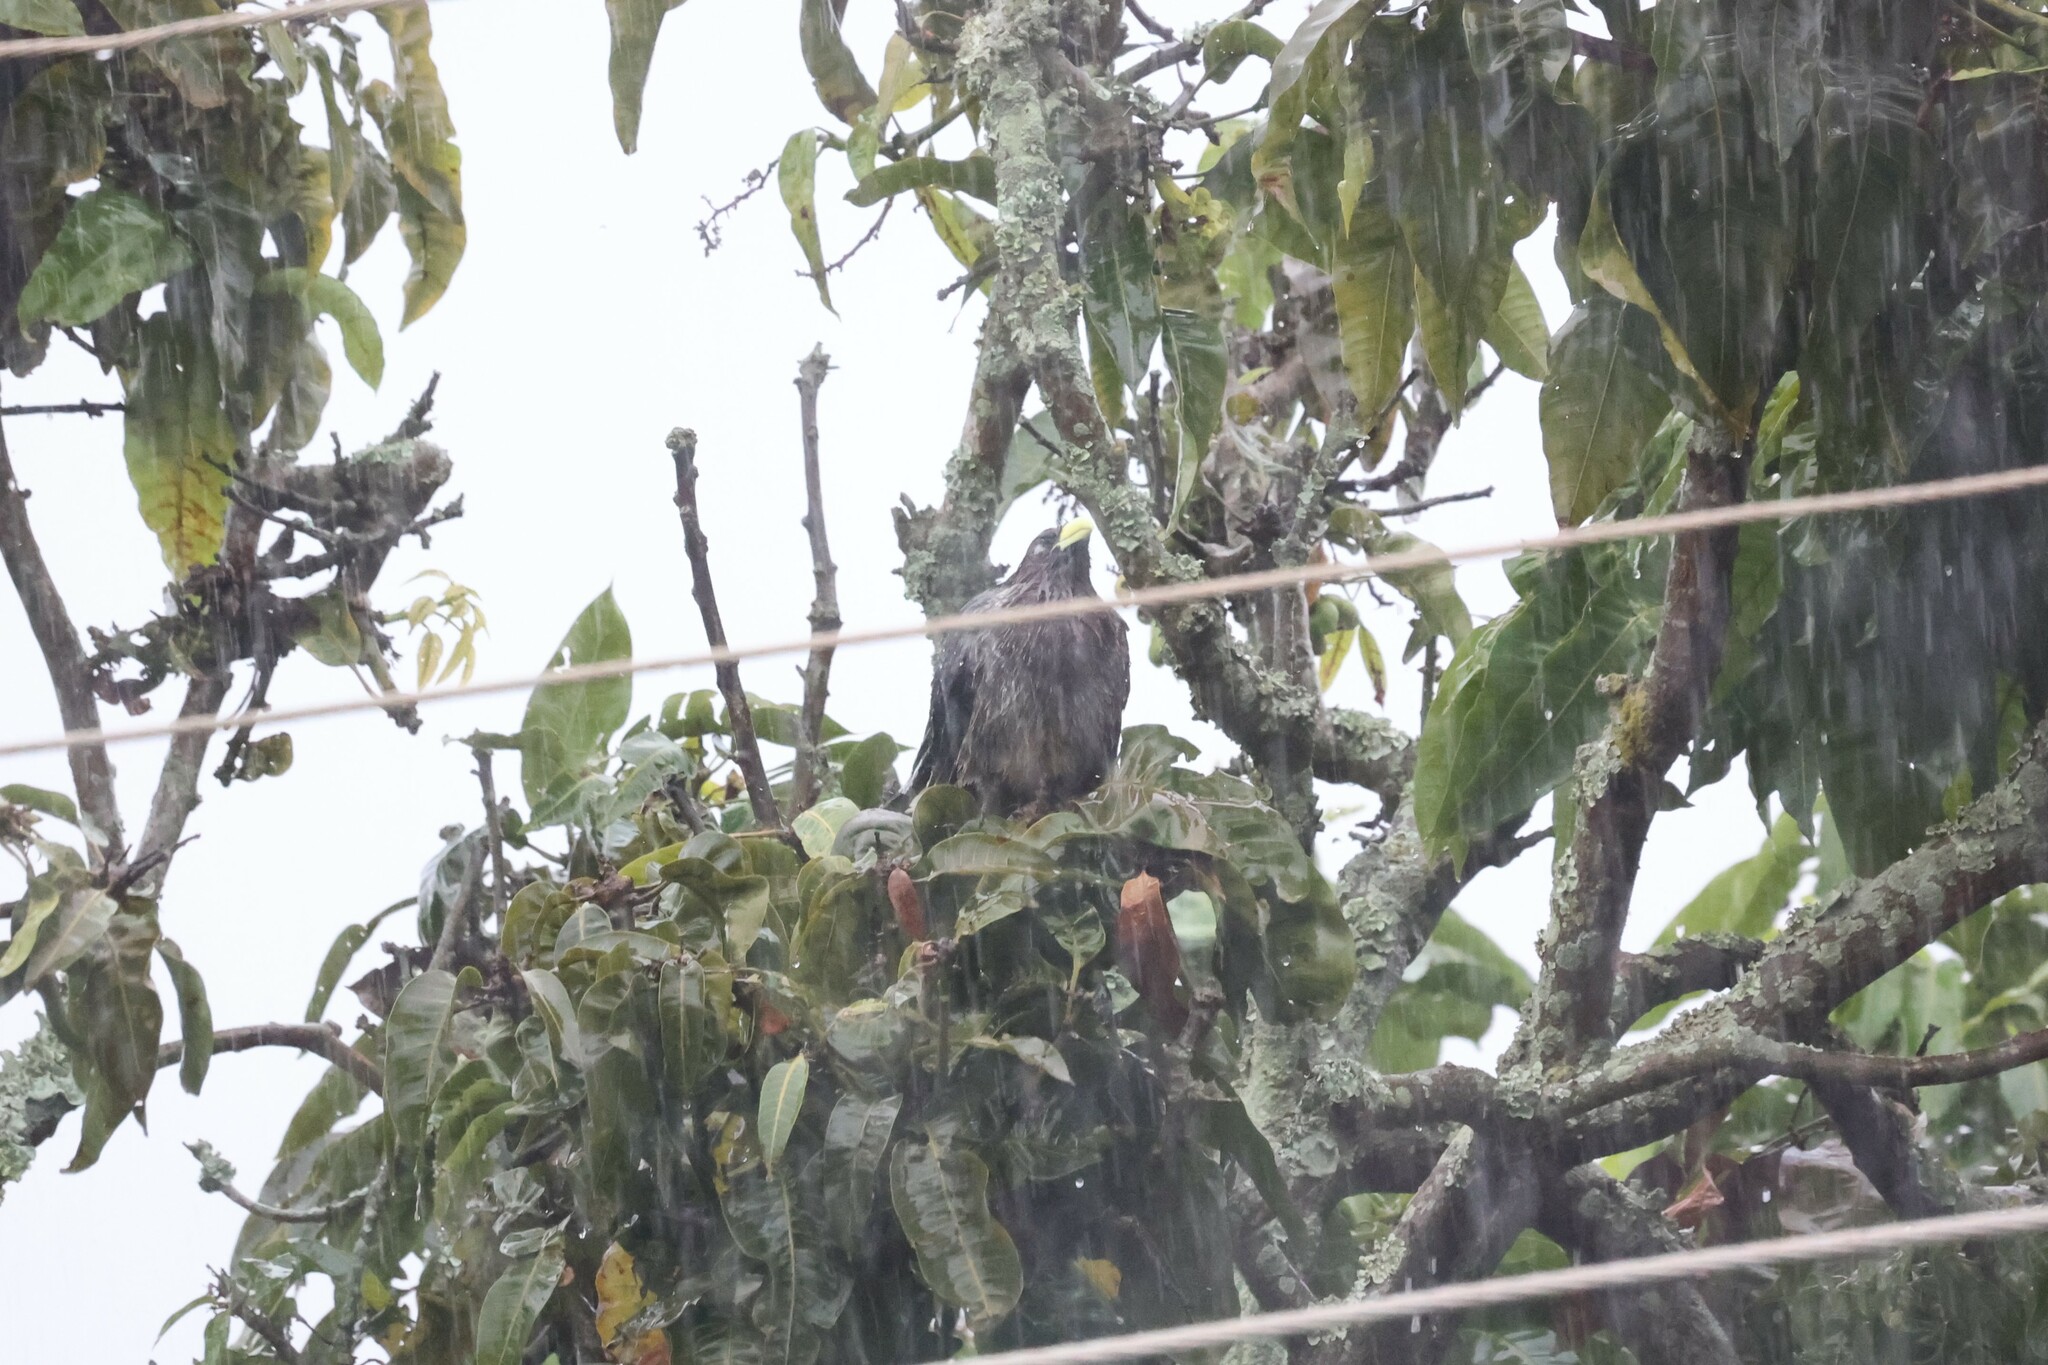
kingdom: Animalia
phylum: Chordata
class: Aves
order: Musophagiformes
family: Musophagidae
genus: Crinifer
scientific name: Crinifer zonurus
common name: Eastern plantain-eater
